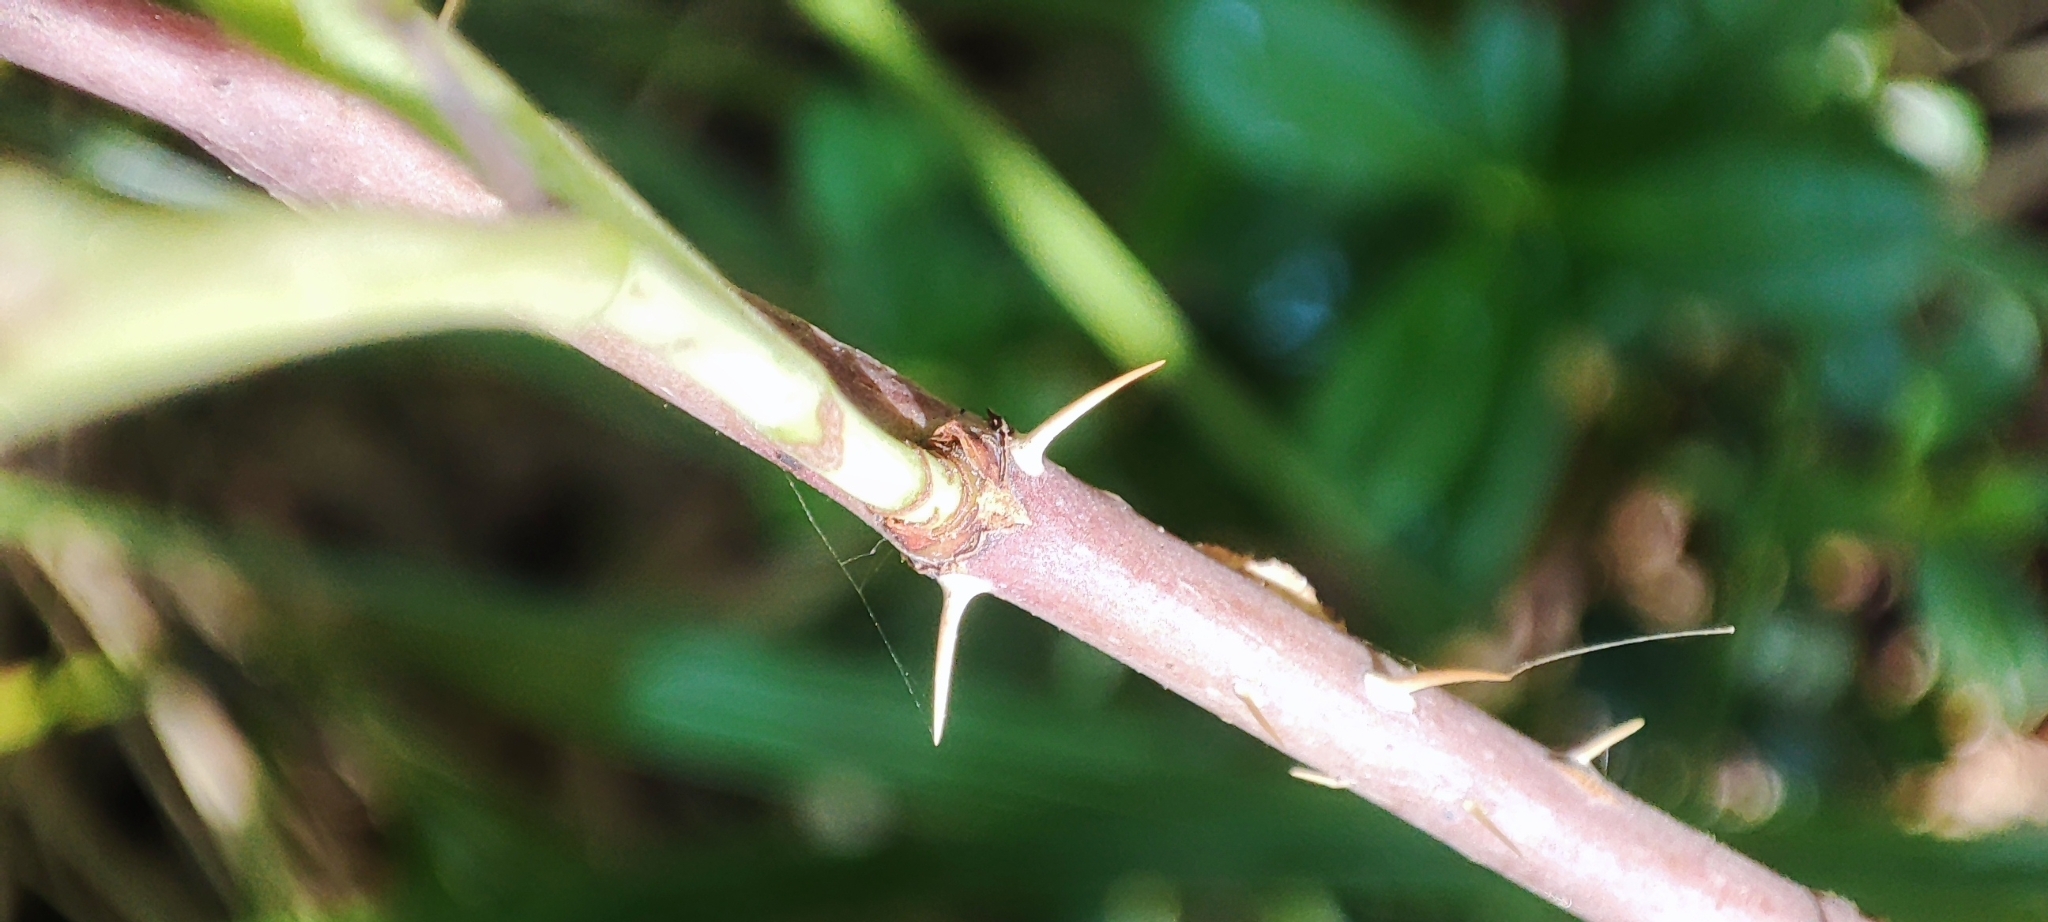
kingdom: Plantae
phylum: Tracheophyta
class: Magnoliopsida
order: Rosales
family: Rosaceae
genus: Rosa
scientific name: Rosa majalis
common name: Cinnamon rose
